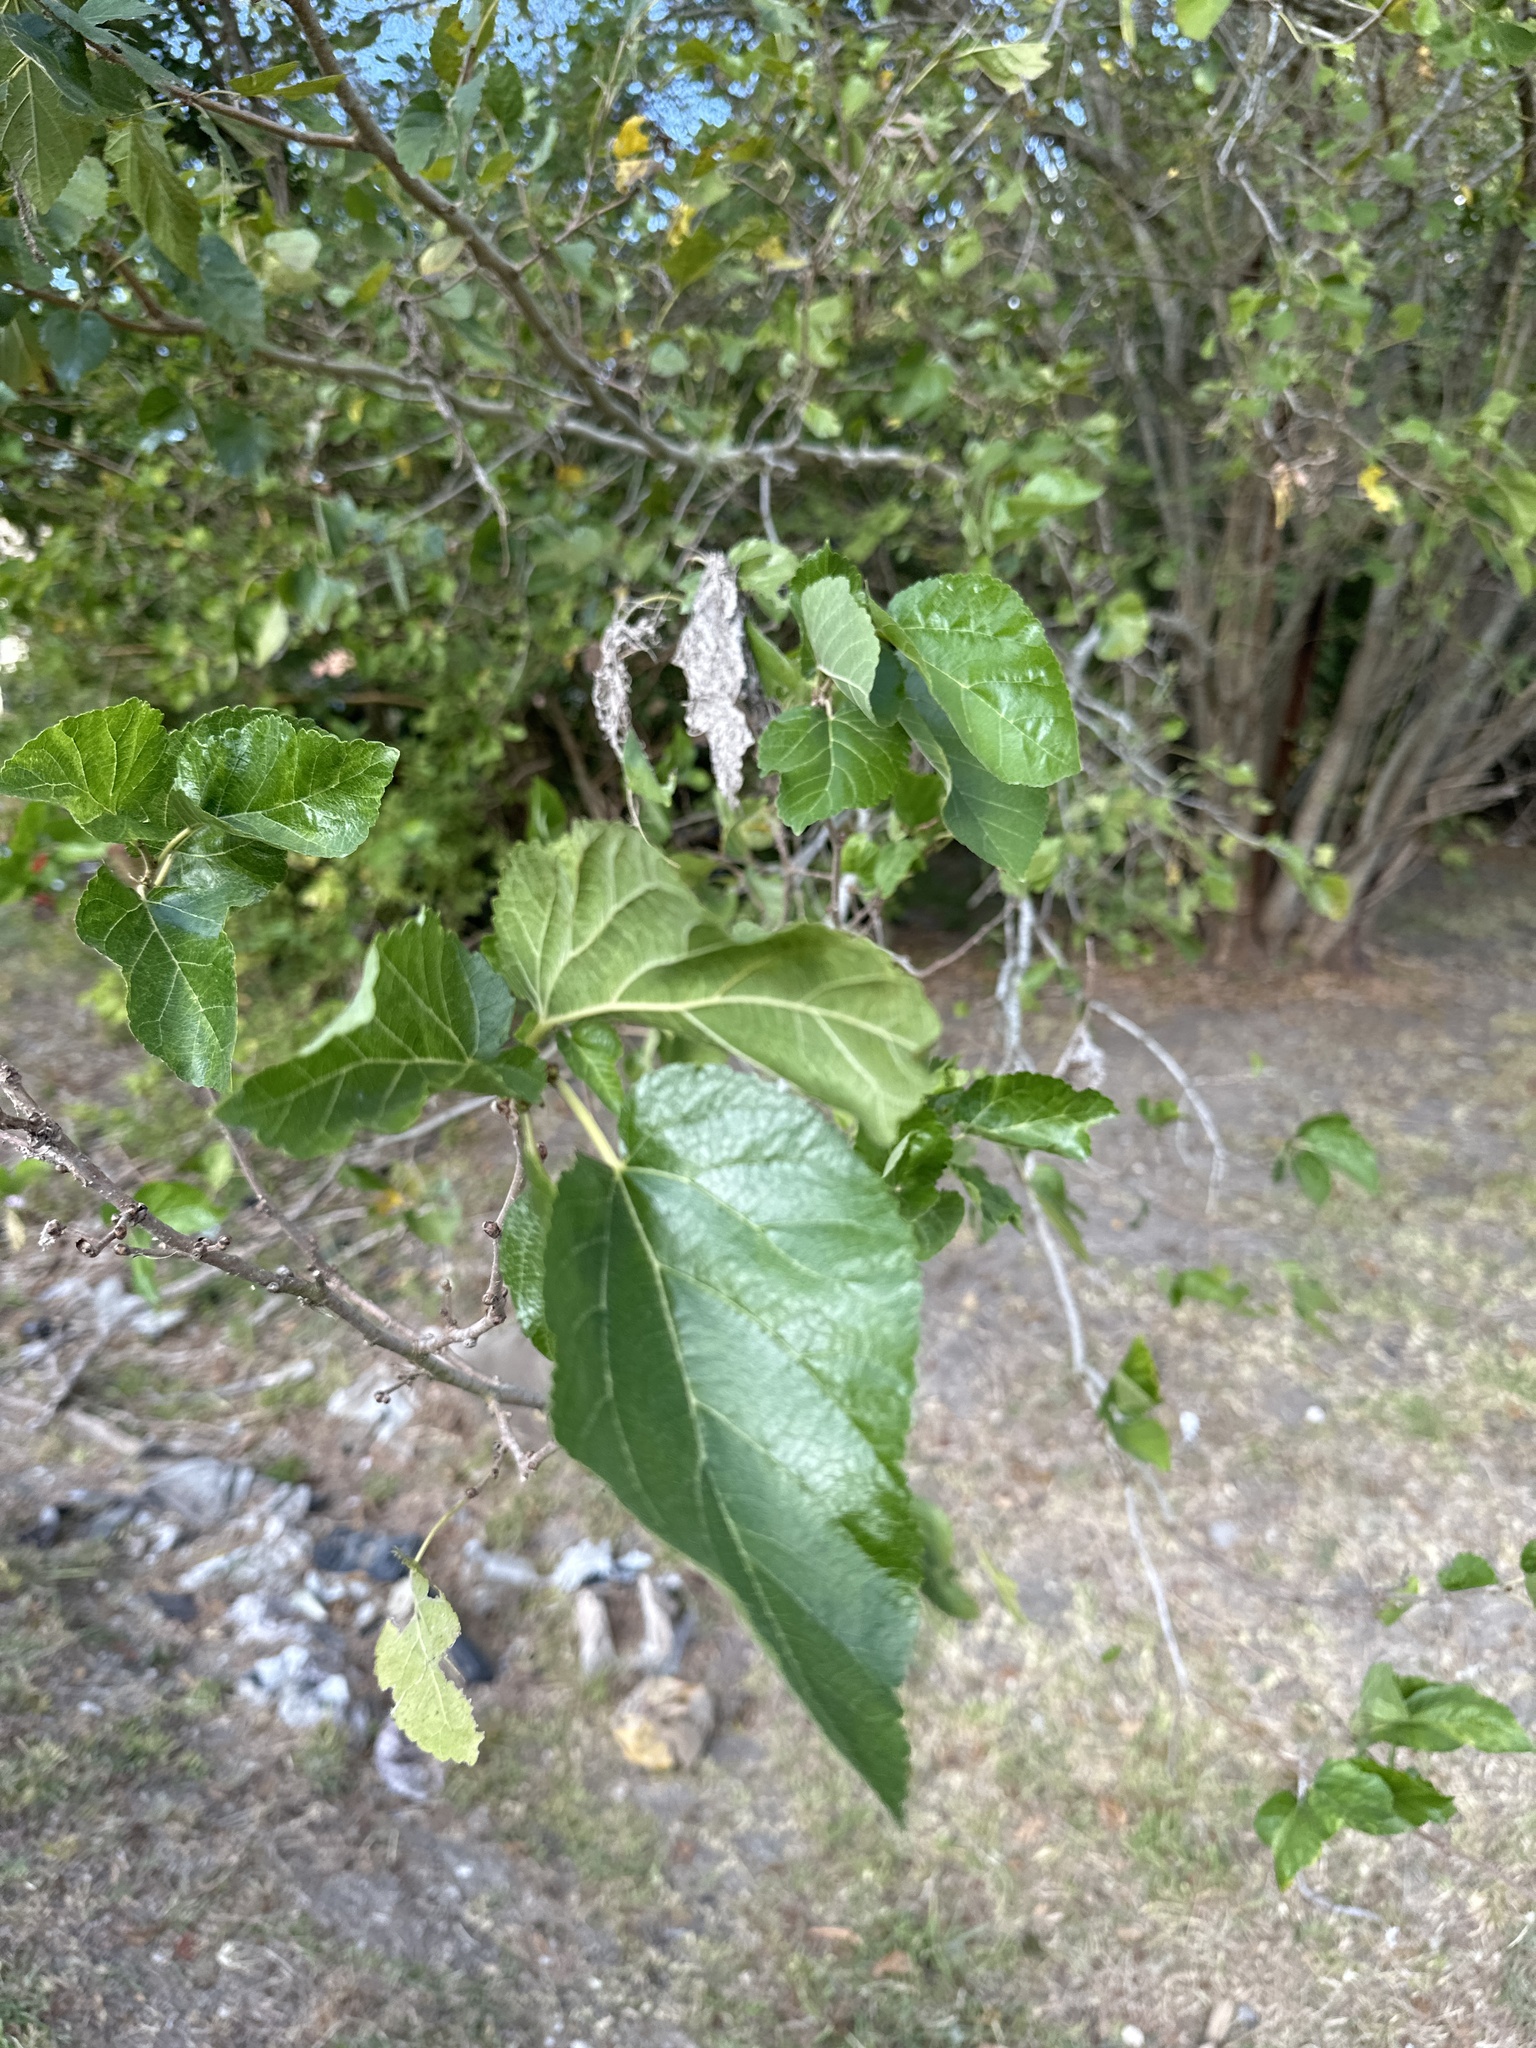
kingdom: Plantae
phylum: Tracheophyta
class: Magnoliopsida
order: Rosales
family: Moraceae
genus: Morus
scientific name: Morus alba
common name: White mulberry
